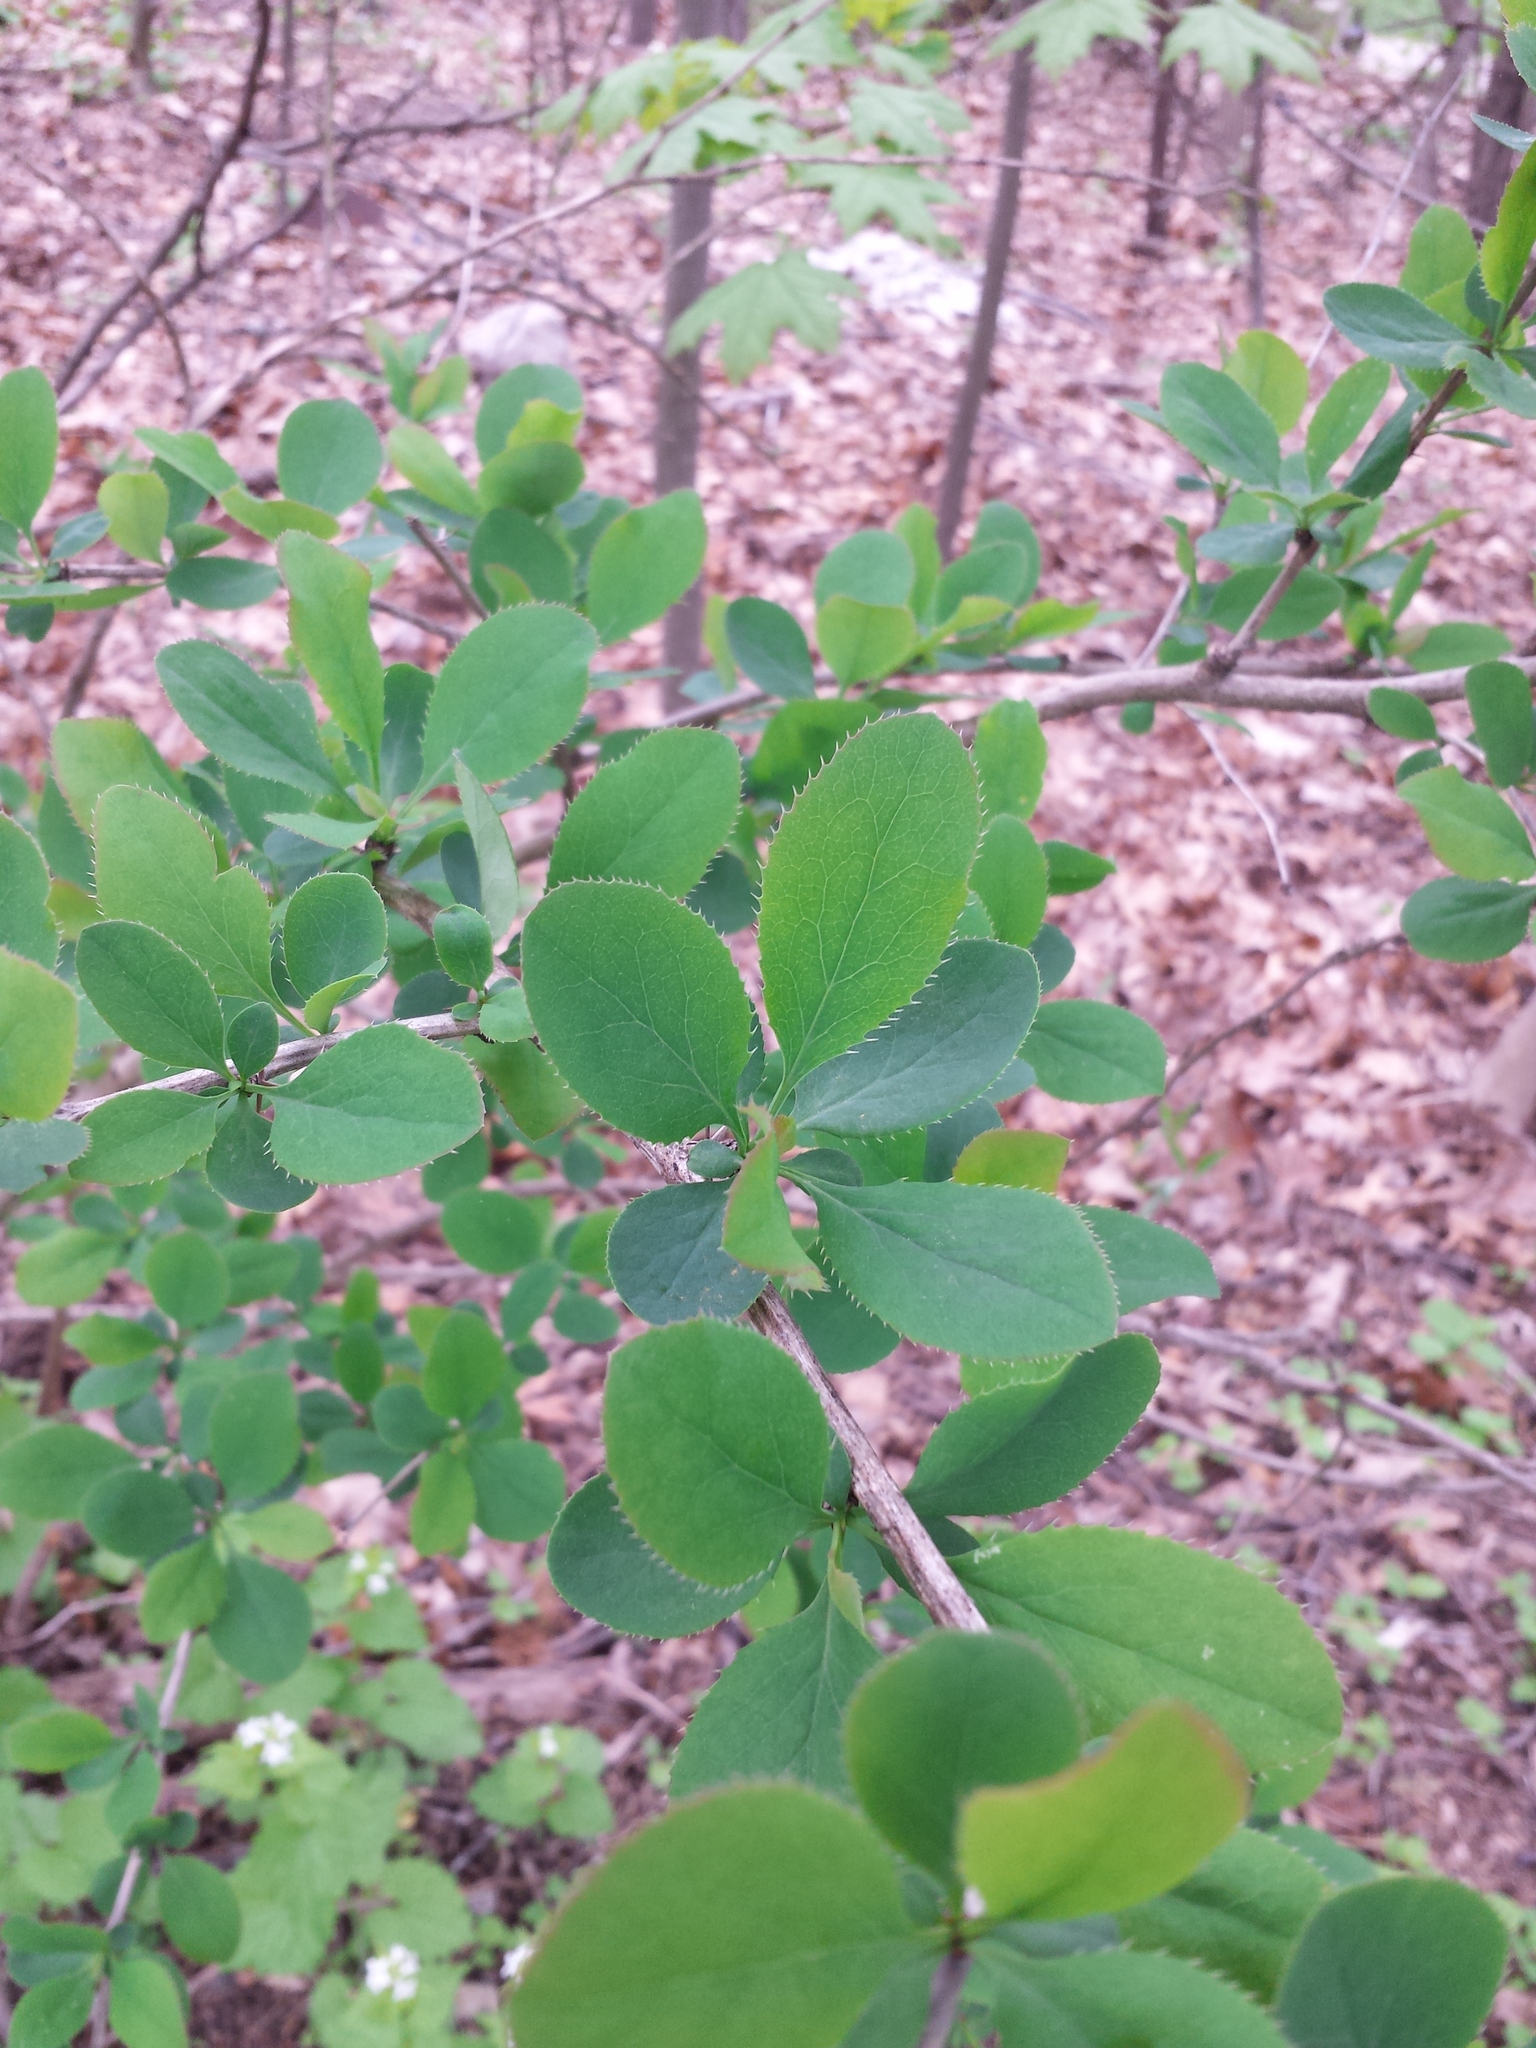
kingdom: Plantae
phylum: Tracheophyta
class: Magnoliopsida
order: Ranunculales
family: Berberidaceae
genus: Berberis
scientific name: Berberis vulgaris
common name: Barberry
